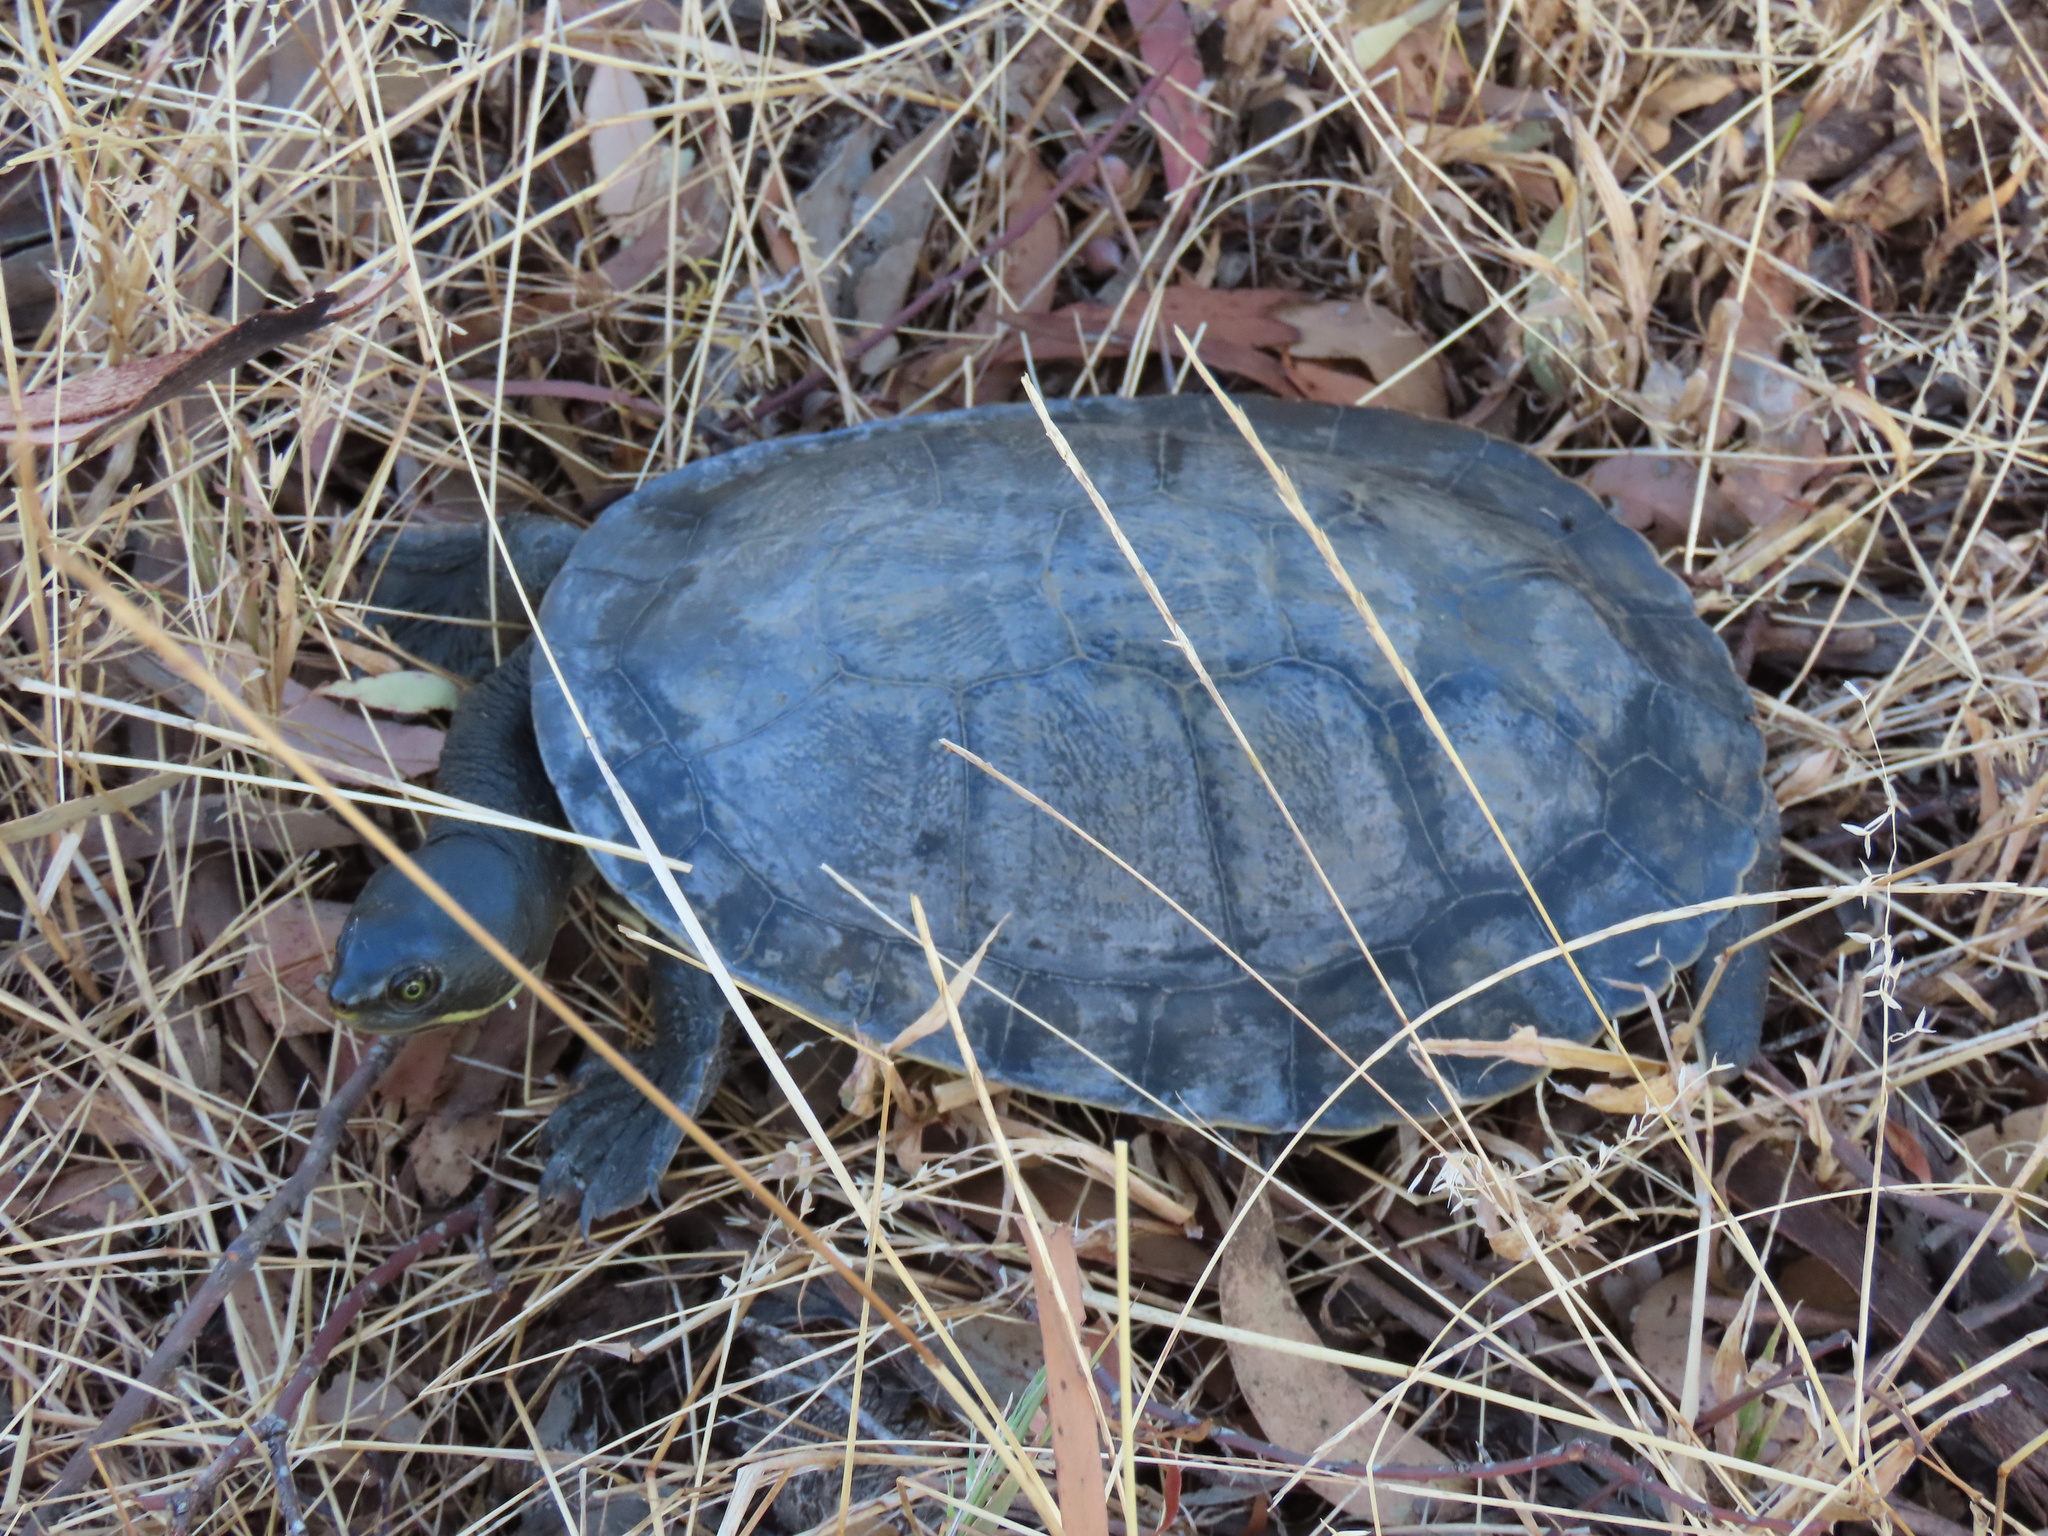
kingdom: Animalia
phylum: Chordata
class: Testudines
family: Chelidae
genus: Emydura
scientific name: Emydura macquarii
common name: Murray river turtle
